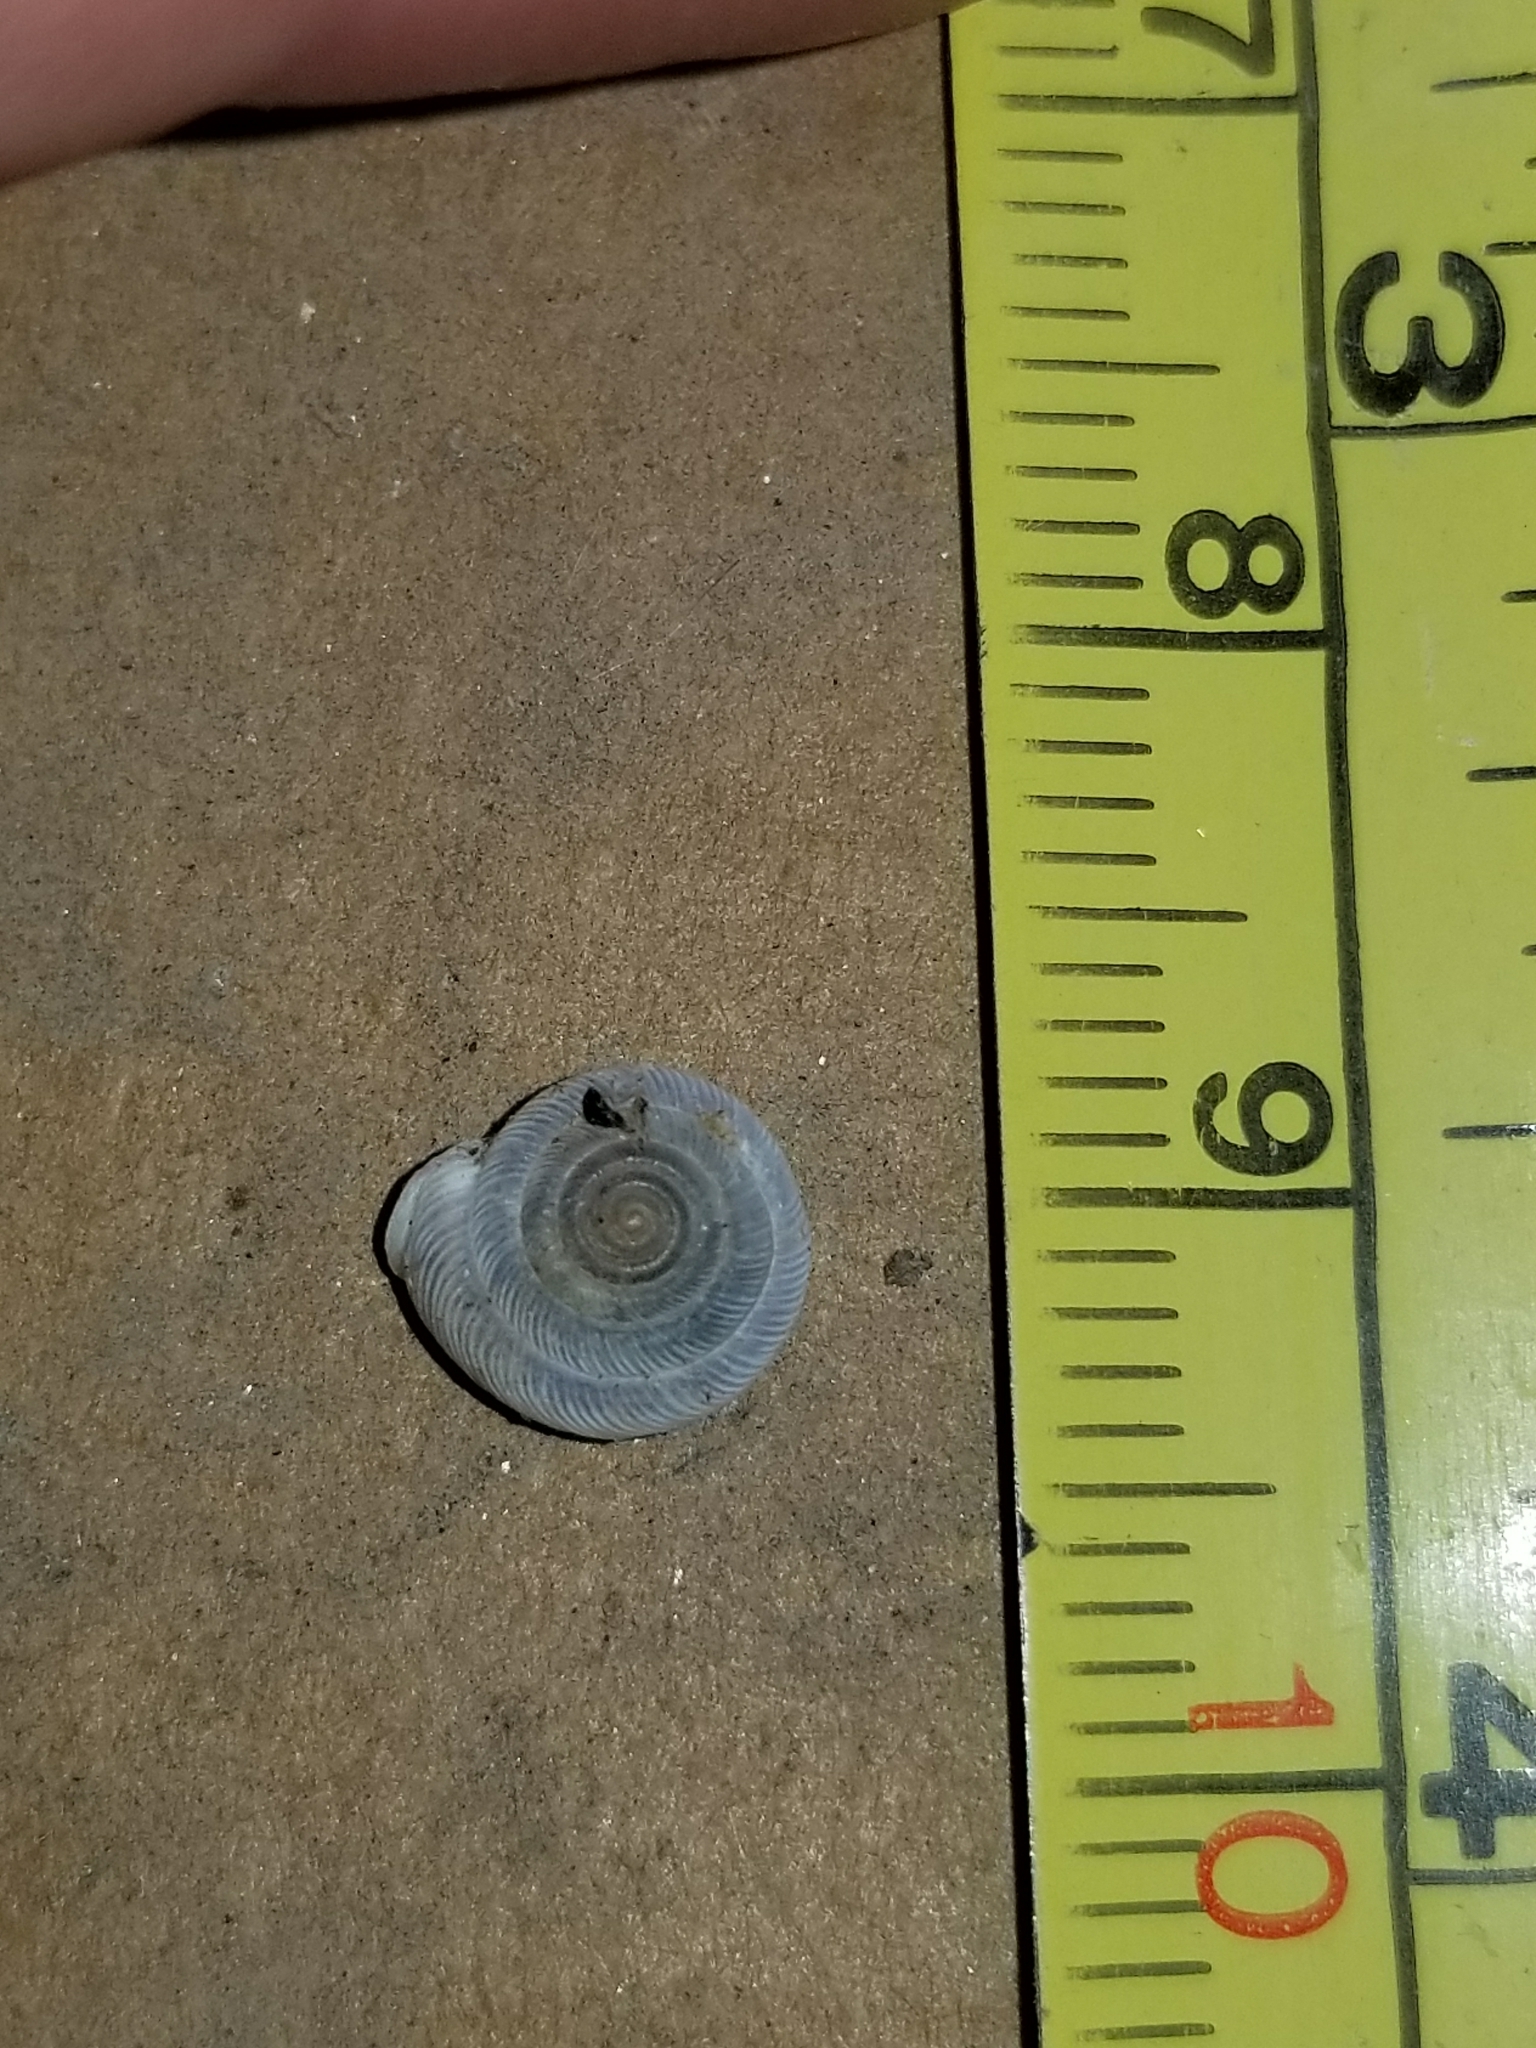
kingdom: Animalia
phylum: Mollusca
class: Gastropoda
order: Stylommatophora
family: Polygyridae
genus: Polygyra
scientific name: Polygyra cereolus
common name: Southern flatcone snail
